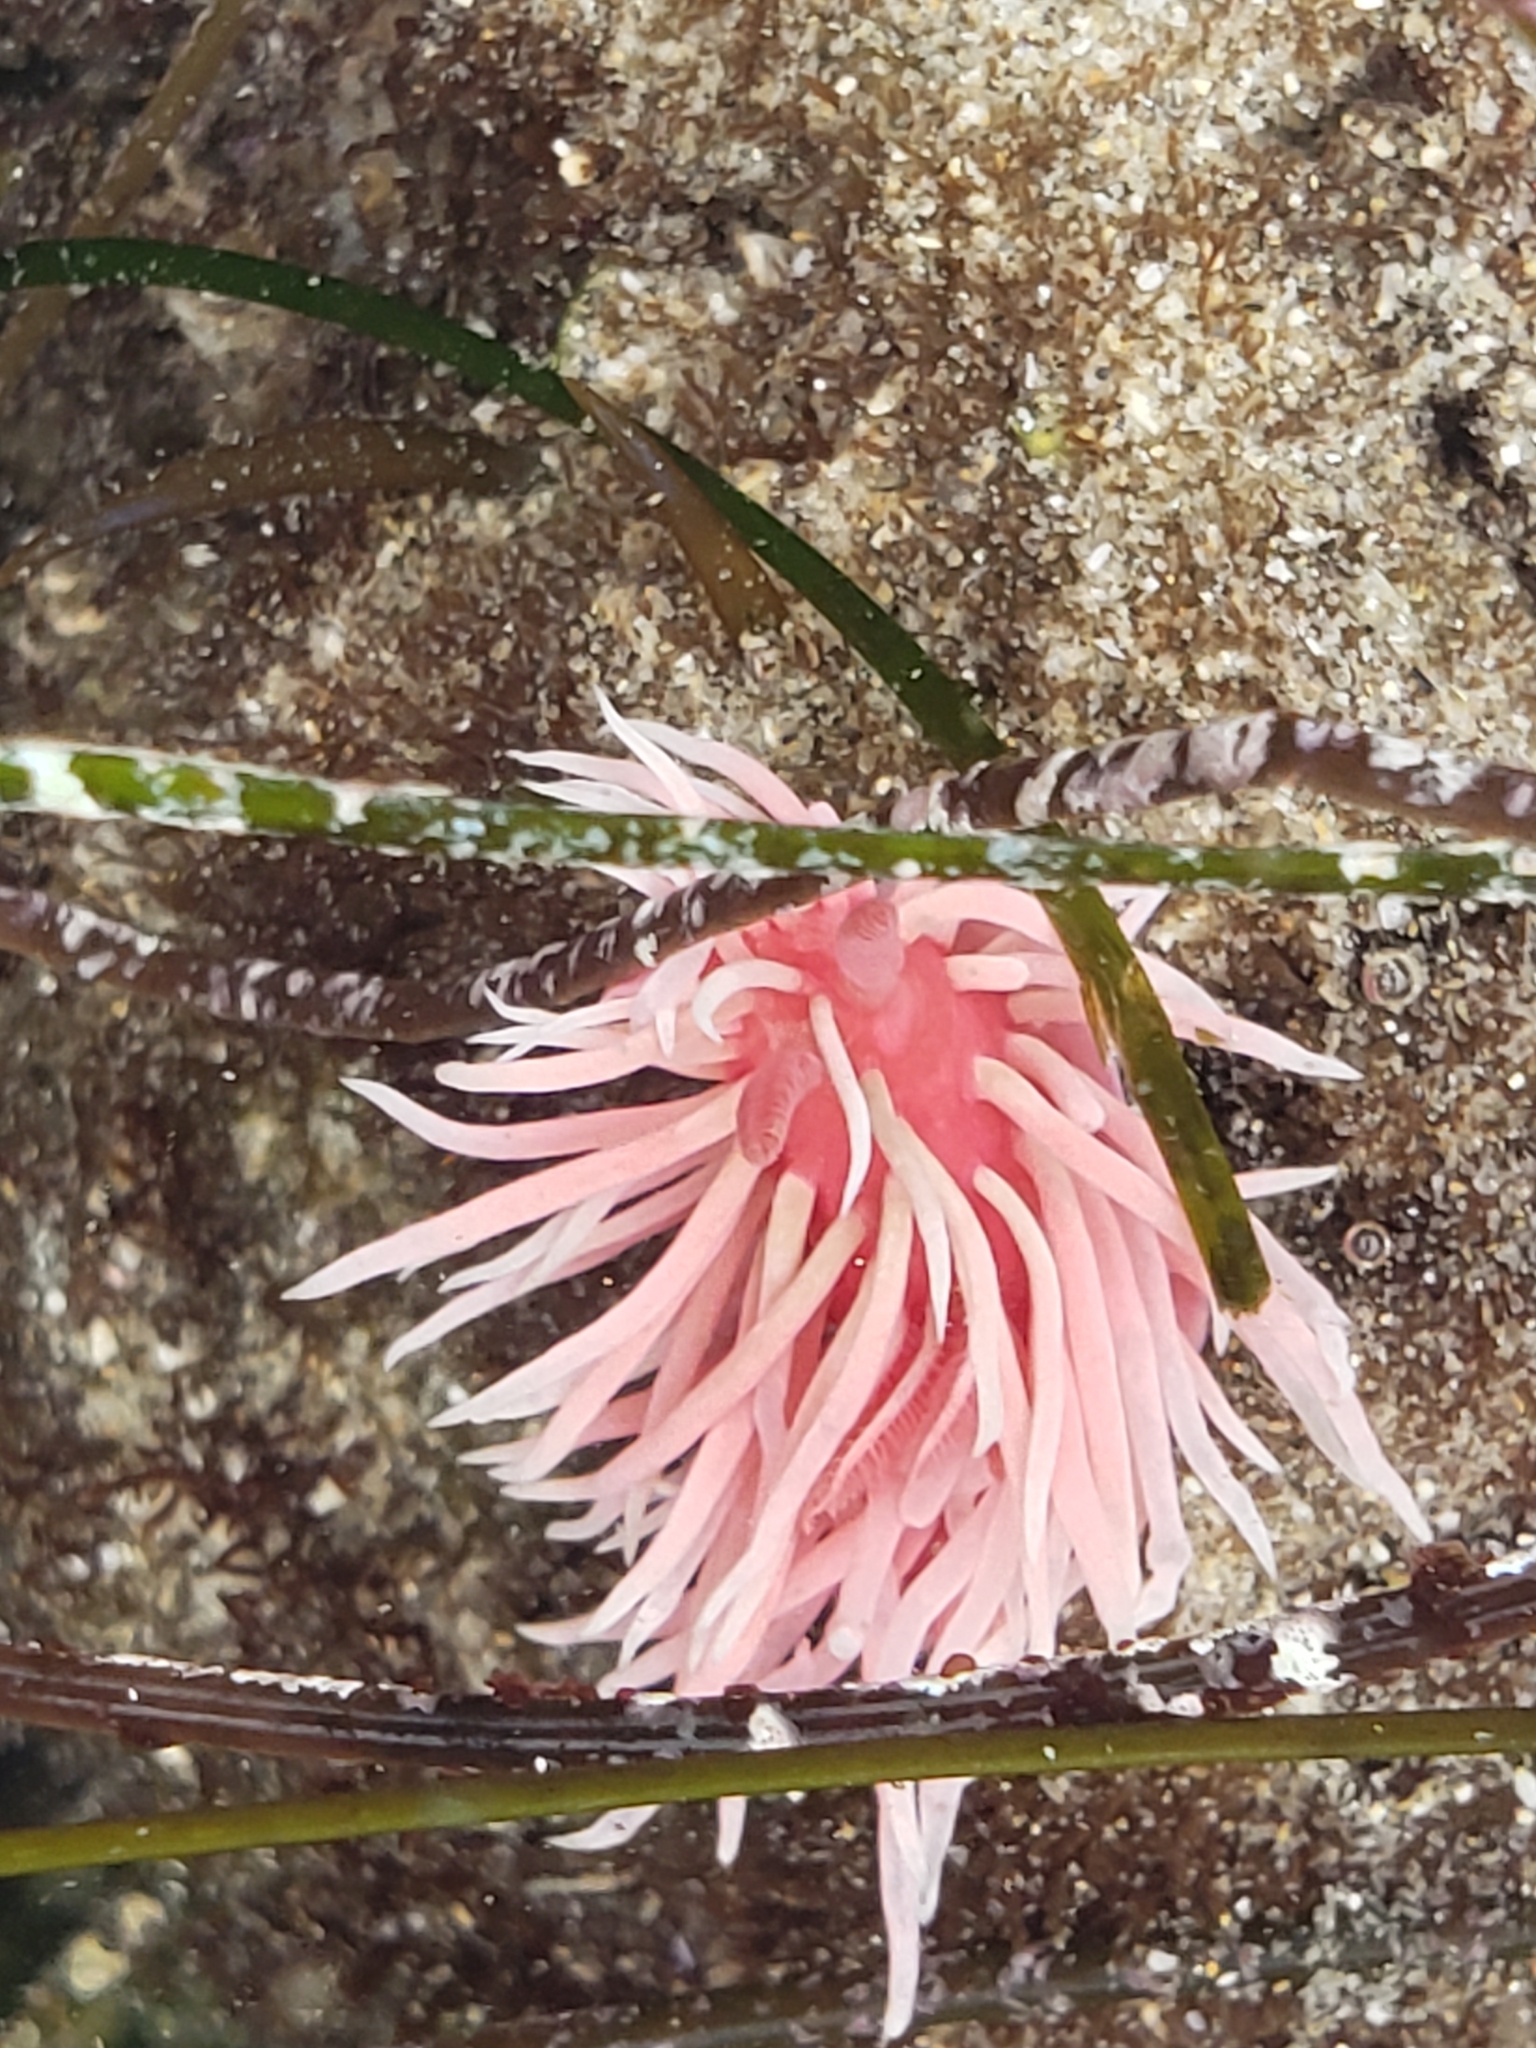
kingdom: Animalia
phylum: Mollusca
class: Gastropoda
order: Nudibranchia
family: Goniodorididae
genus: Okenia
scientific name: Okenia
